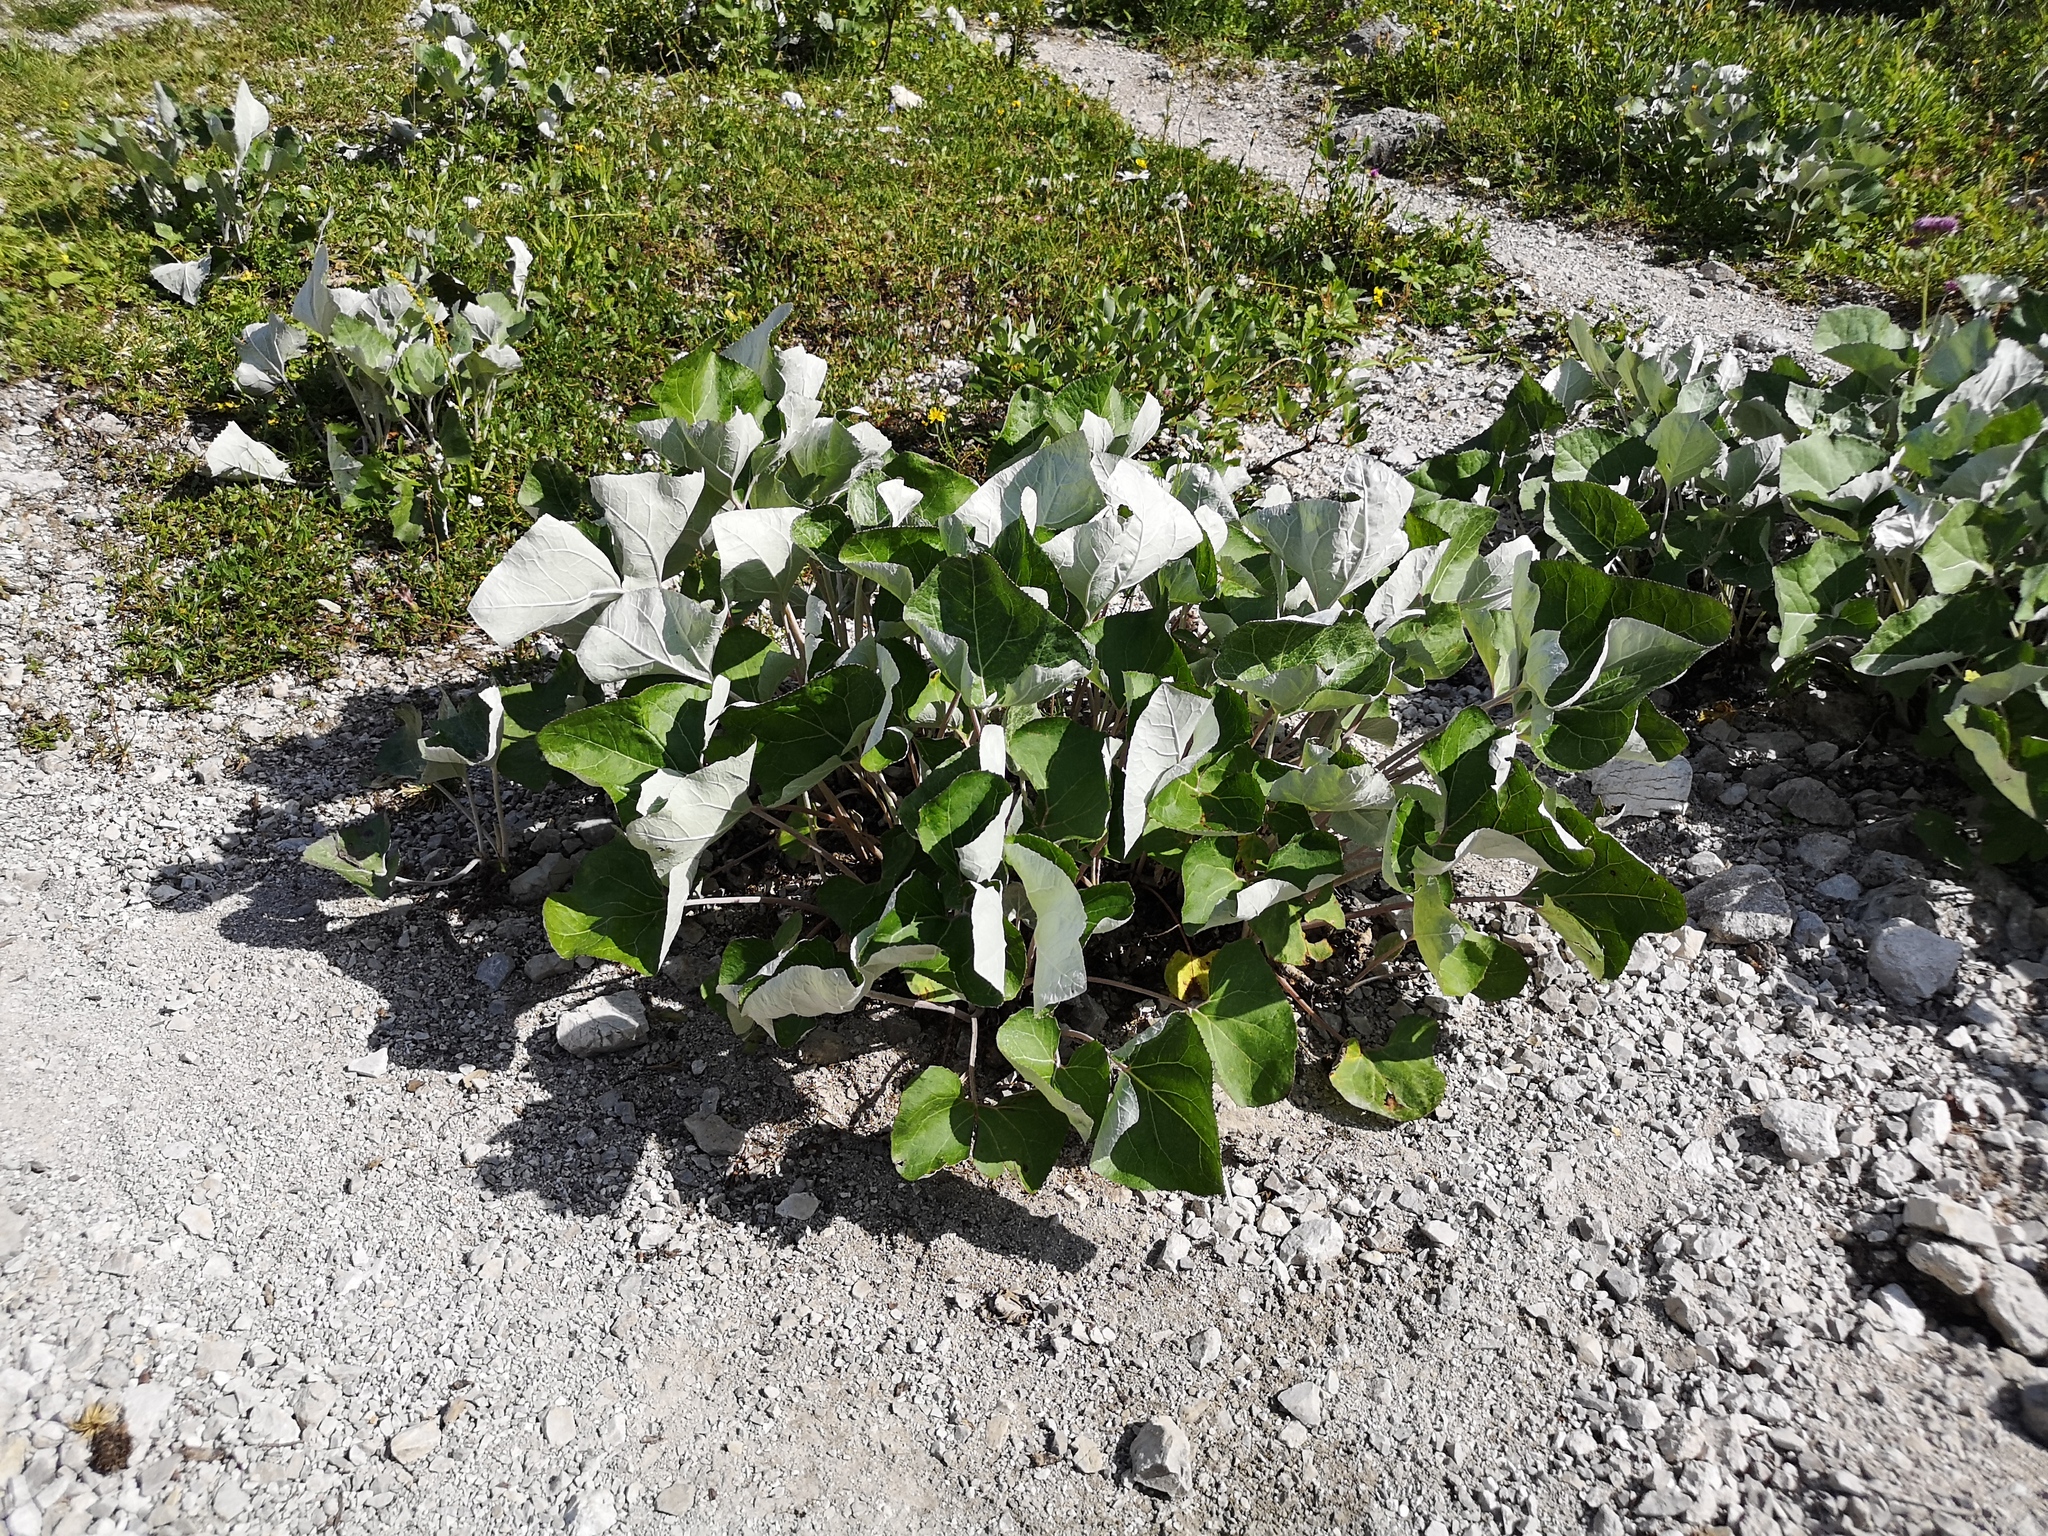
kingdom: Plantae
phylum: Tracheophyta
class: Magnoliopsida
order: Asterales
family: Asteraceae
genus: Petasites
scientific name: Petasites paradoxus
